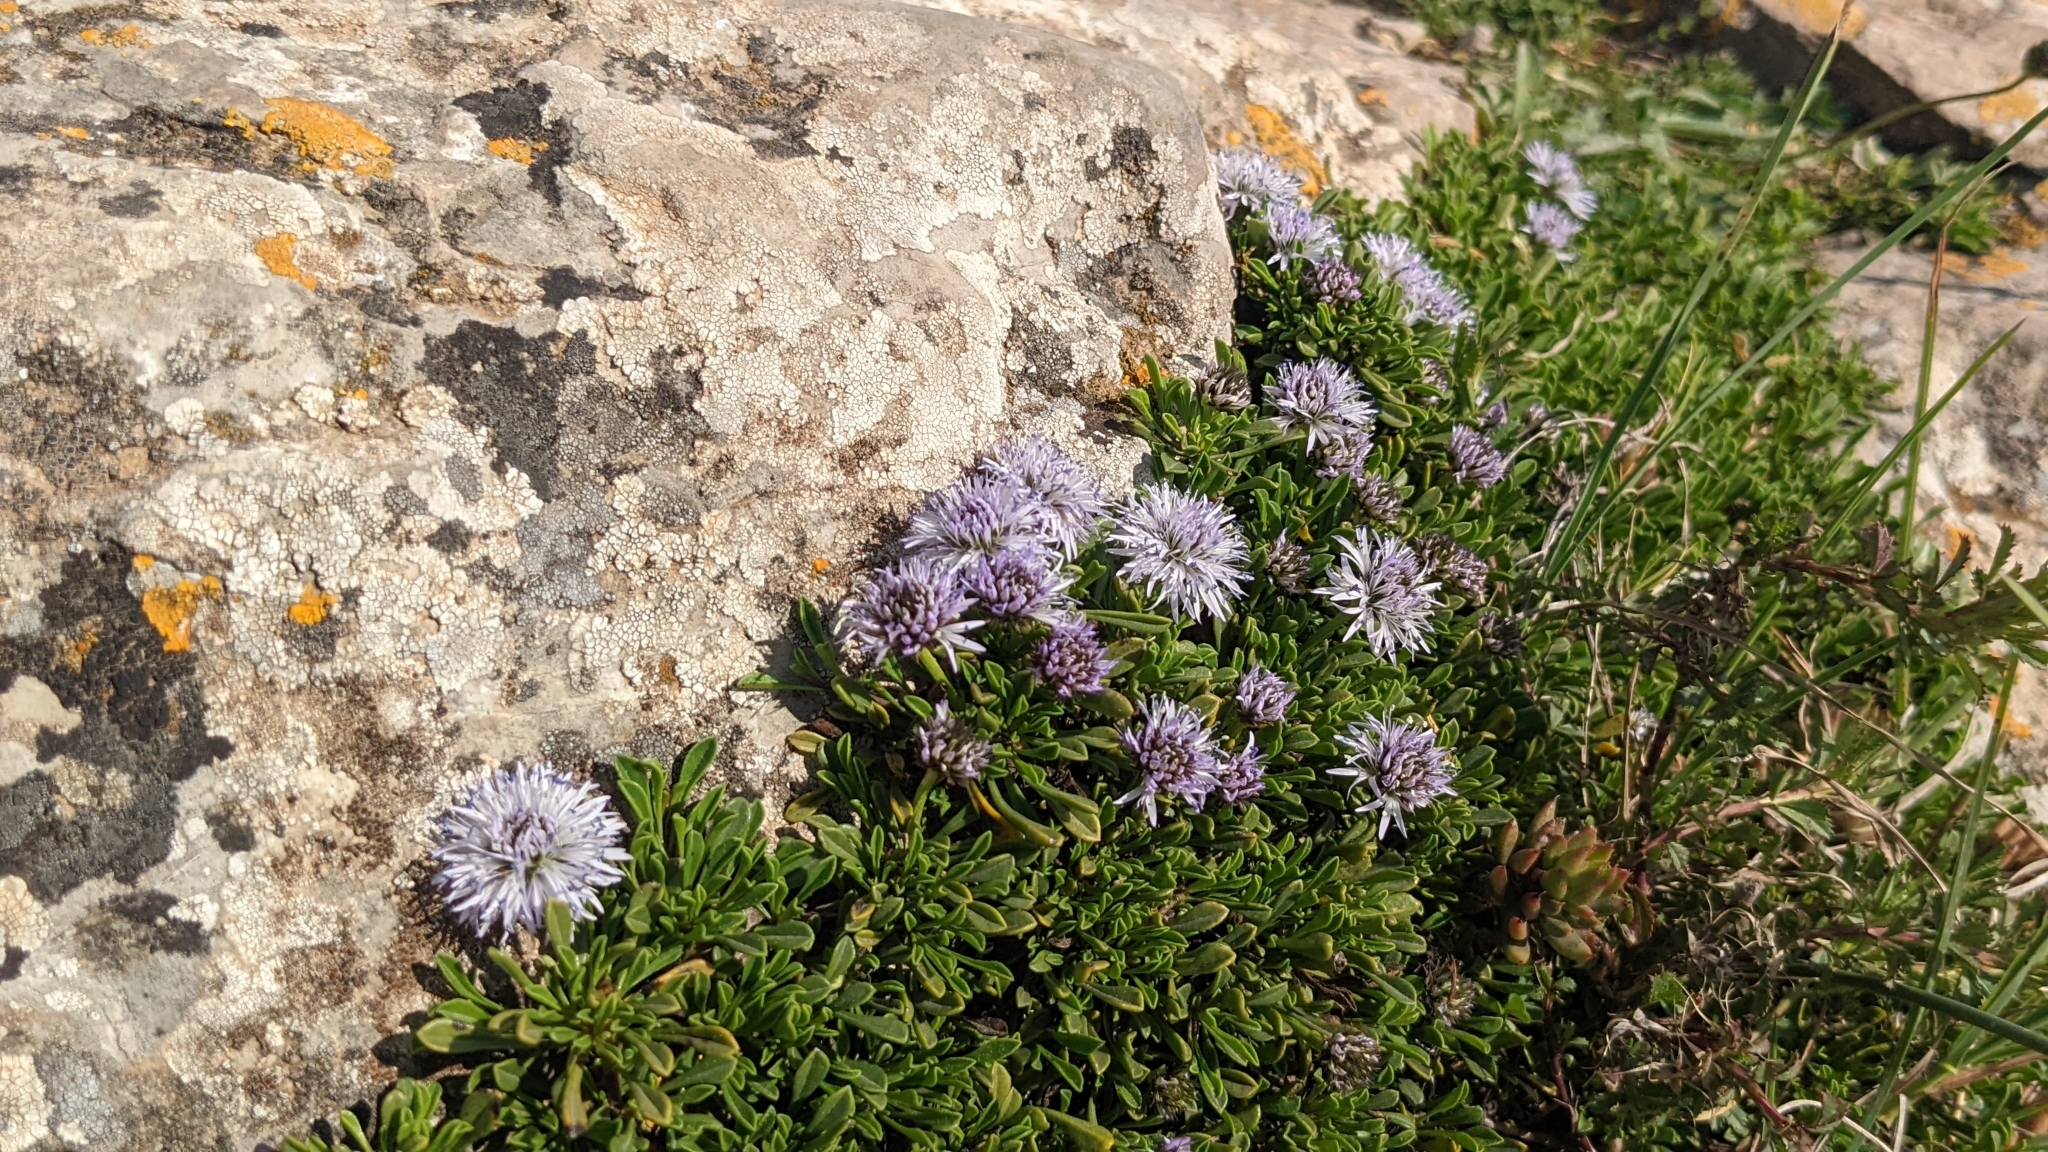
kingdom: Plantae
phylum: Tracheophyta
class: Magnoliopsida
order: Lamiales
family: Plantaginaceae
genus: Globularia
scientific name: Globularia repens
